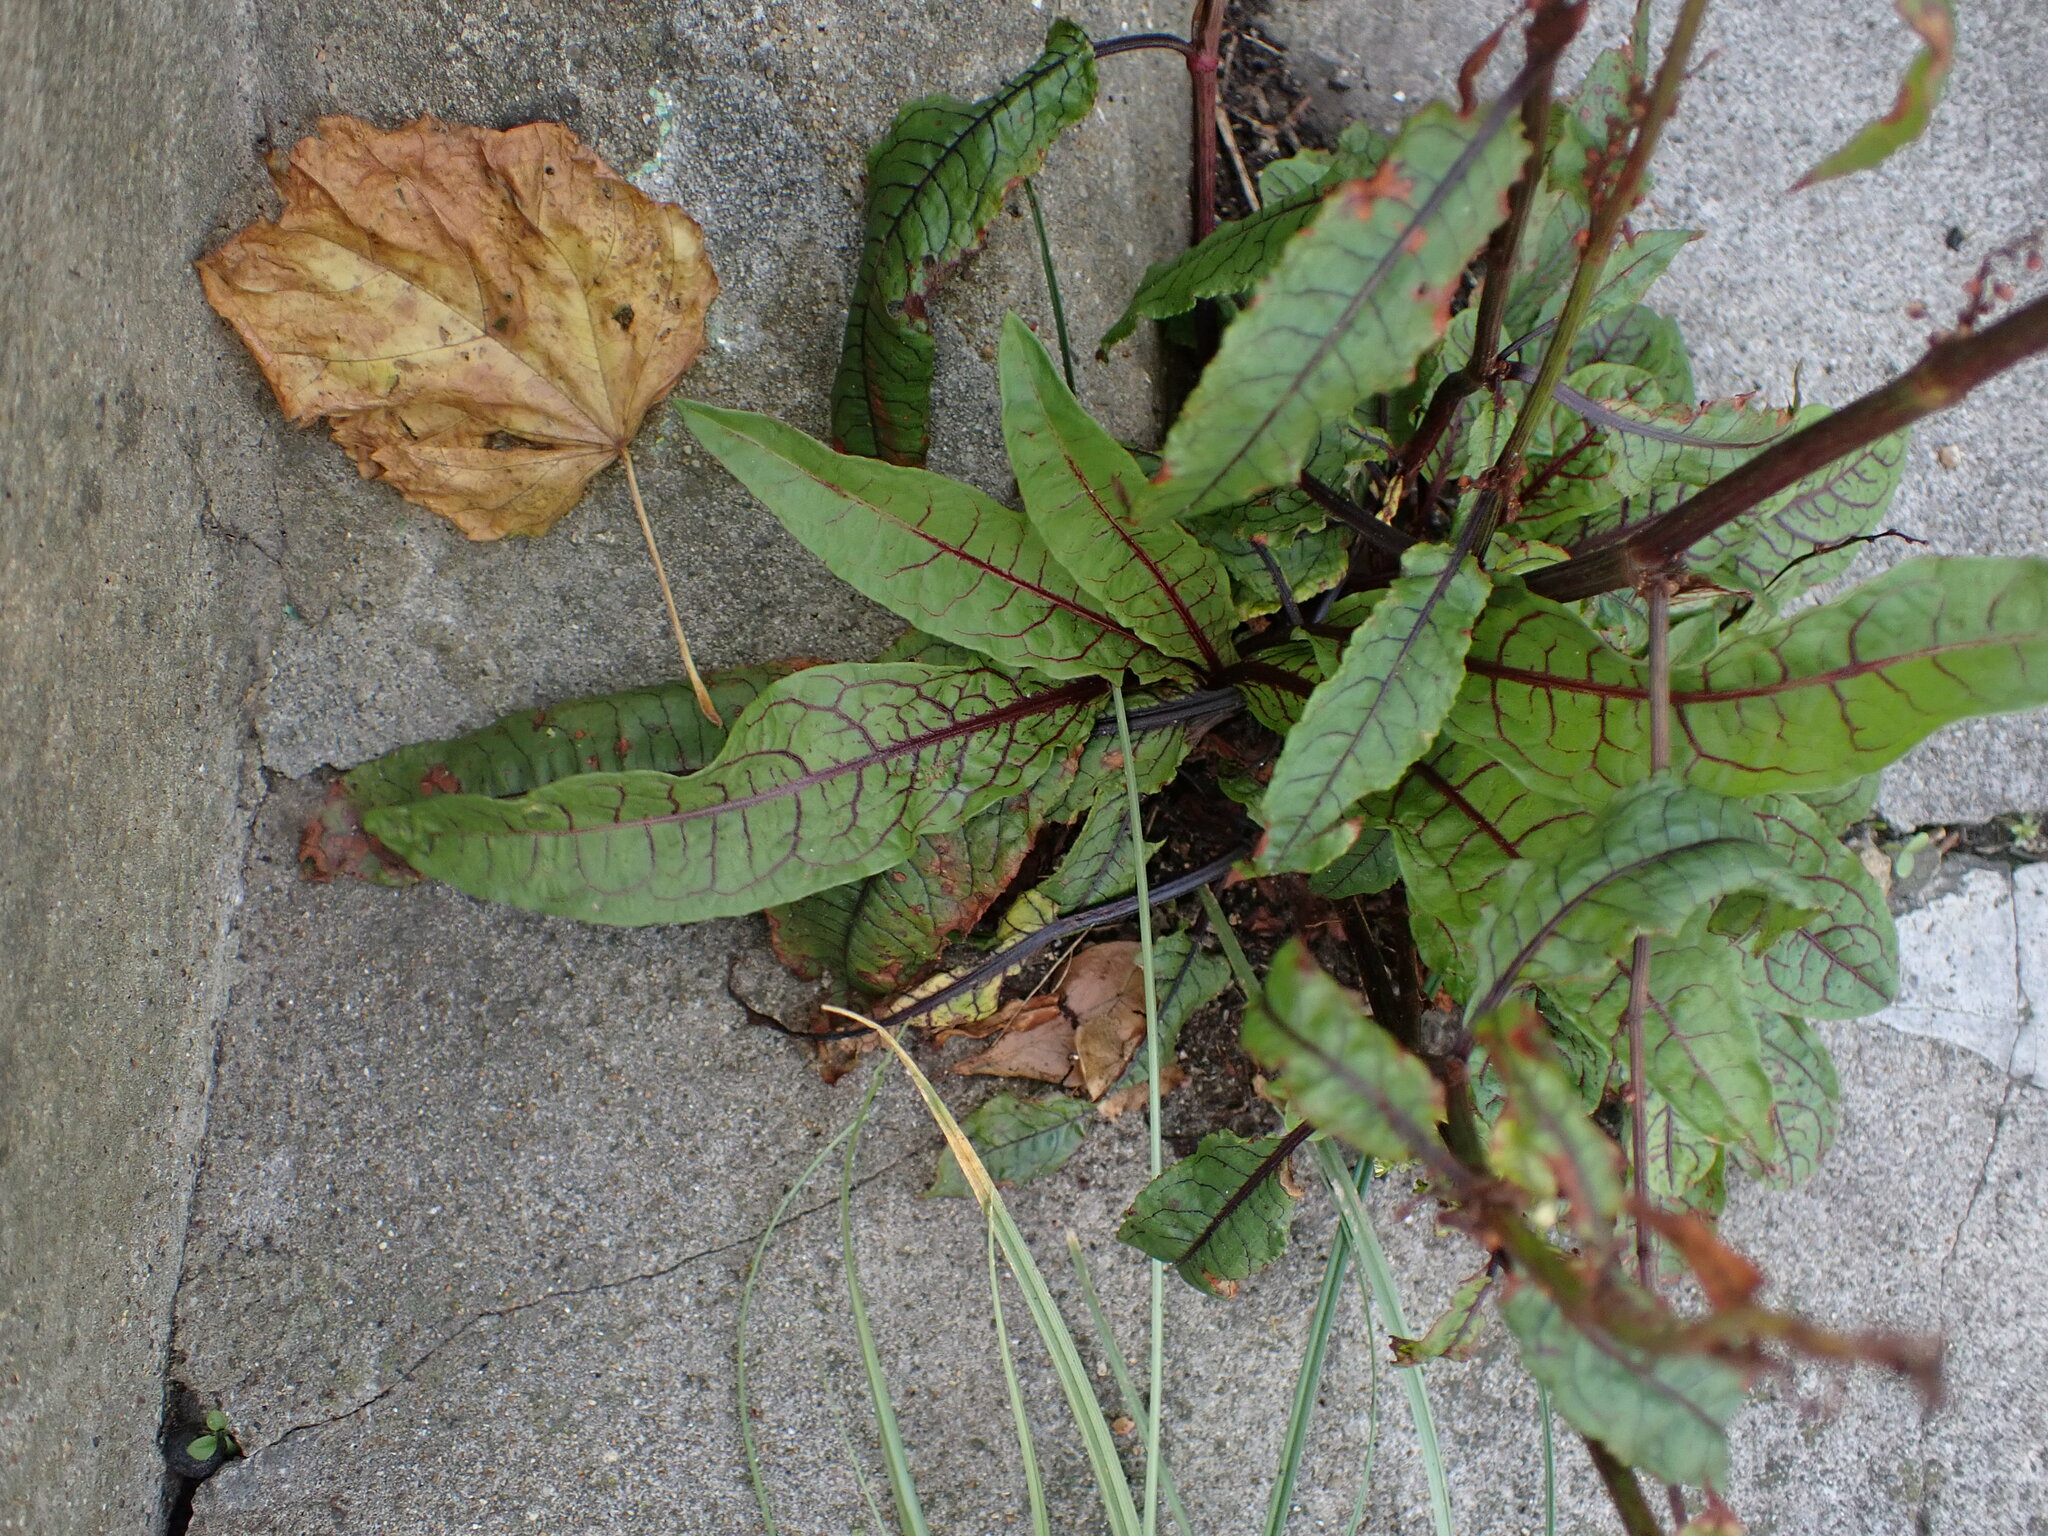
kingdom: Plantae
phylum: Tracheophyta
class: Magnoliopsida
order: Caryophyllales
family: Polygonaceae
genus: Rumex
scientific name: Rumex sanguineus
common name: Wood dock
